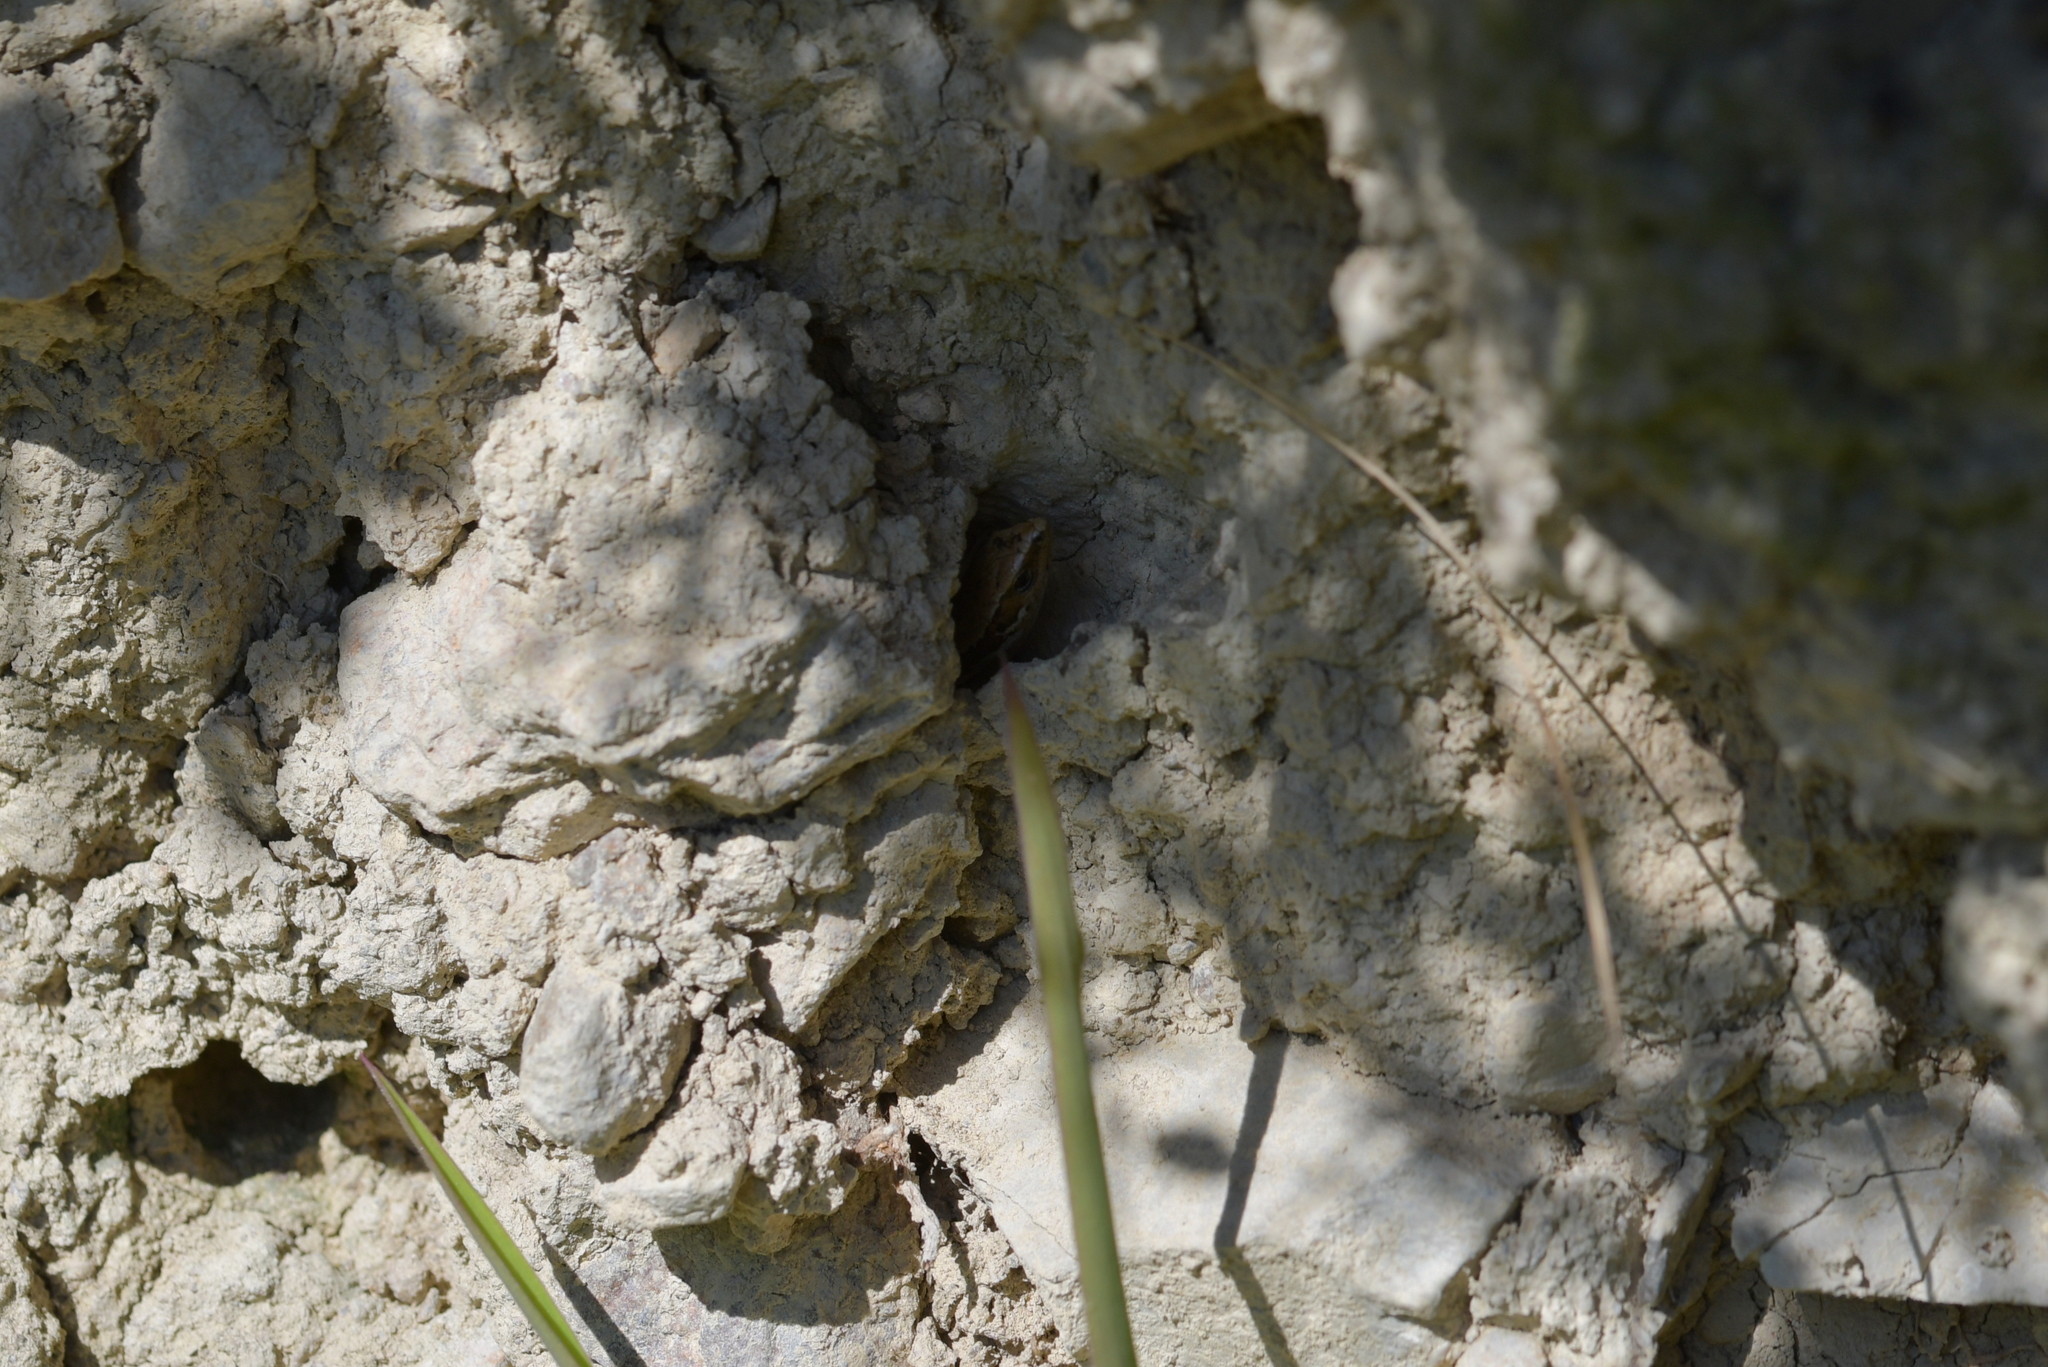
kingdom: Animalia
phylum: Chordata
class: Squamata
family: Scincidae
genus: Oligosoma
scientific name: Oligosoma polychroma
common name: Common new zealand skink
